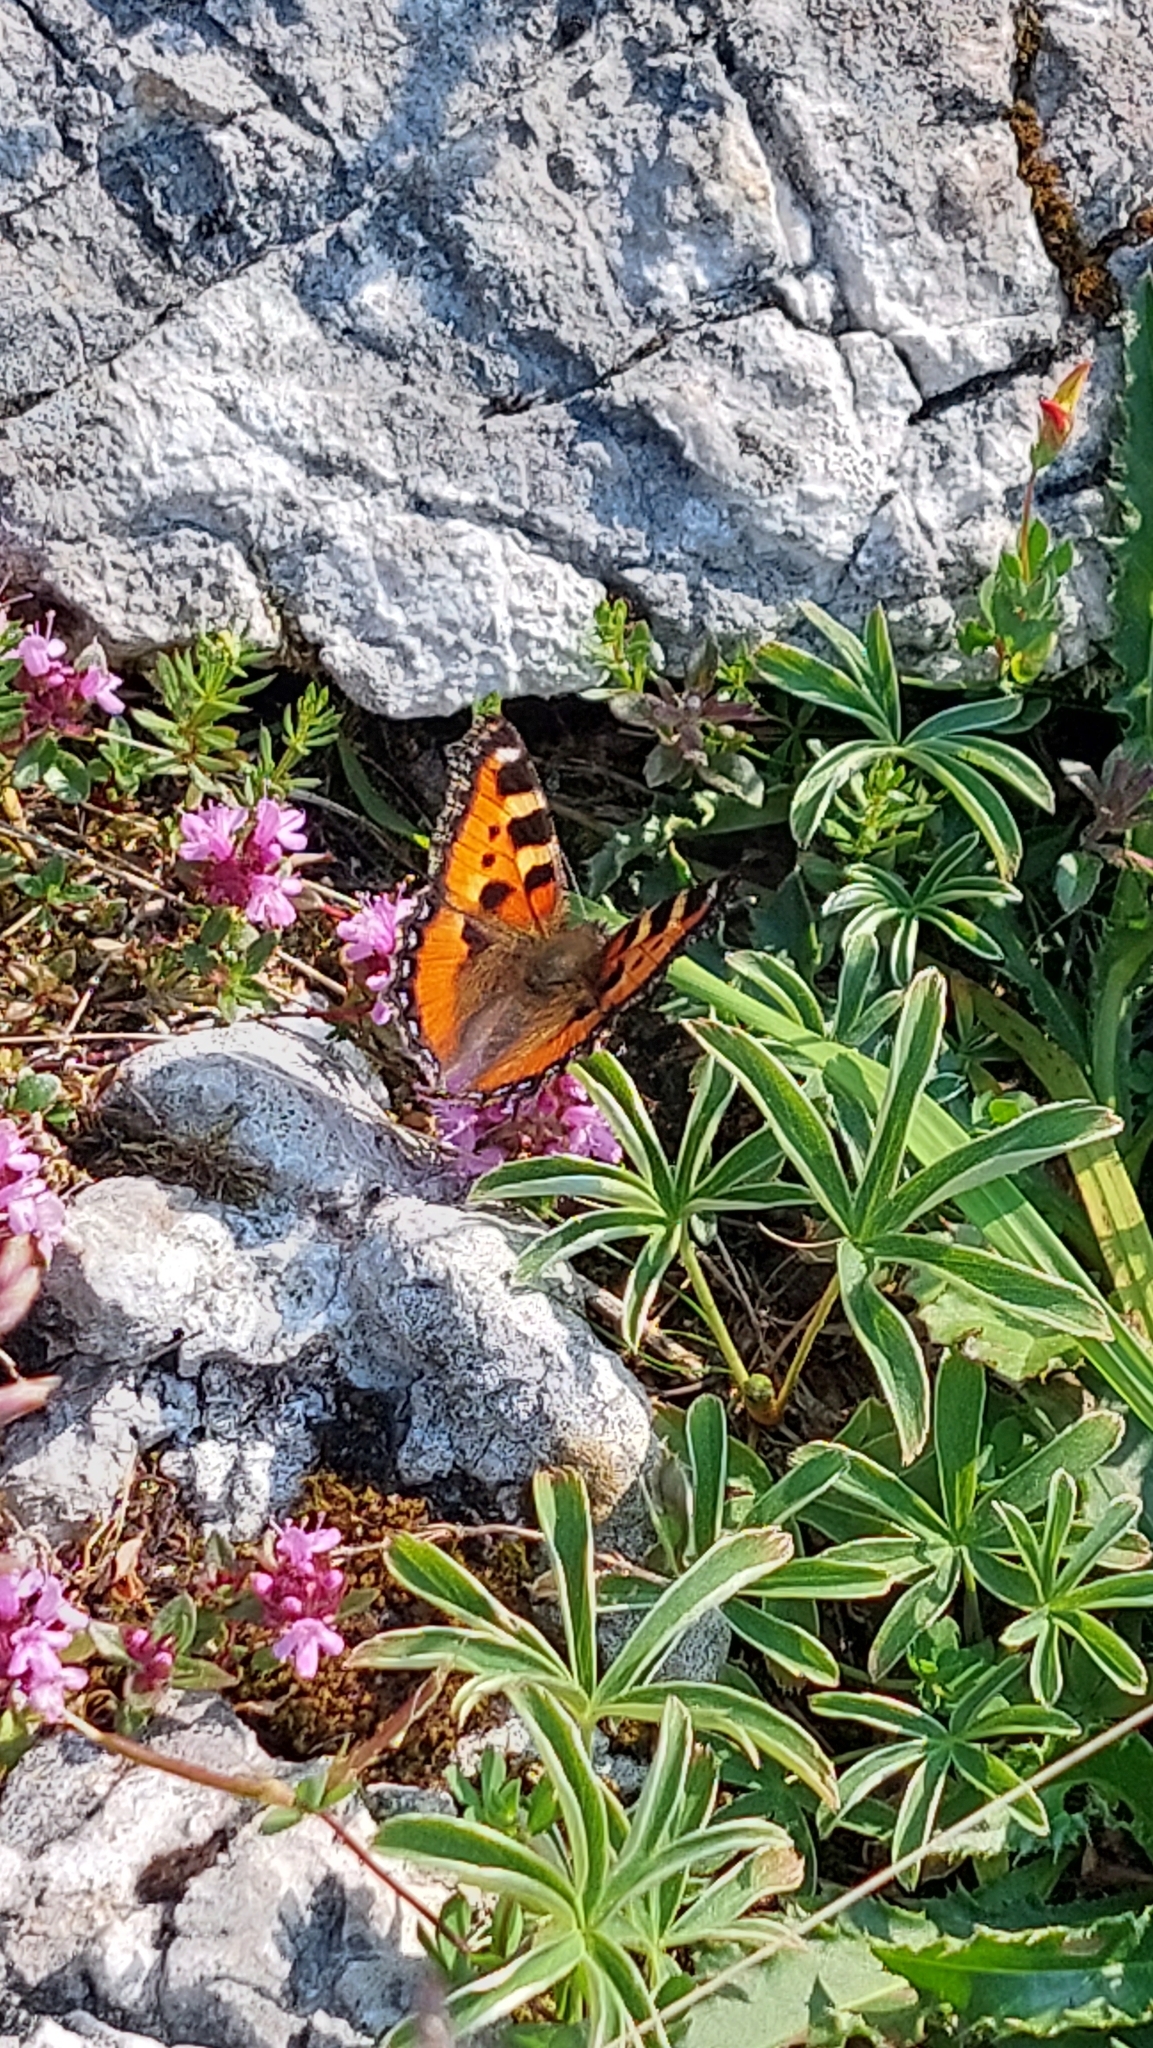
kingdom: Animalia
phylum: Arthropoda
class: Insecta
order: Lepidoptera
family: Nymphalidae
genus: Aglais
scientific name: Aglais urticae
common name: Small tortoiseshell
